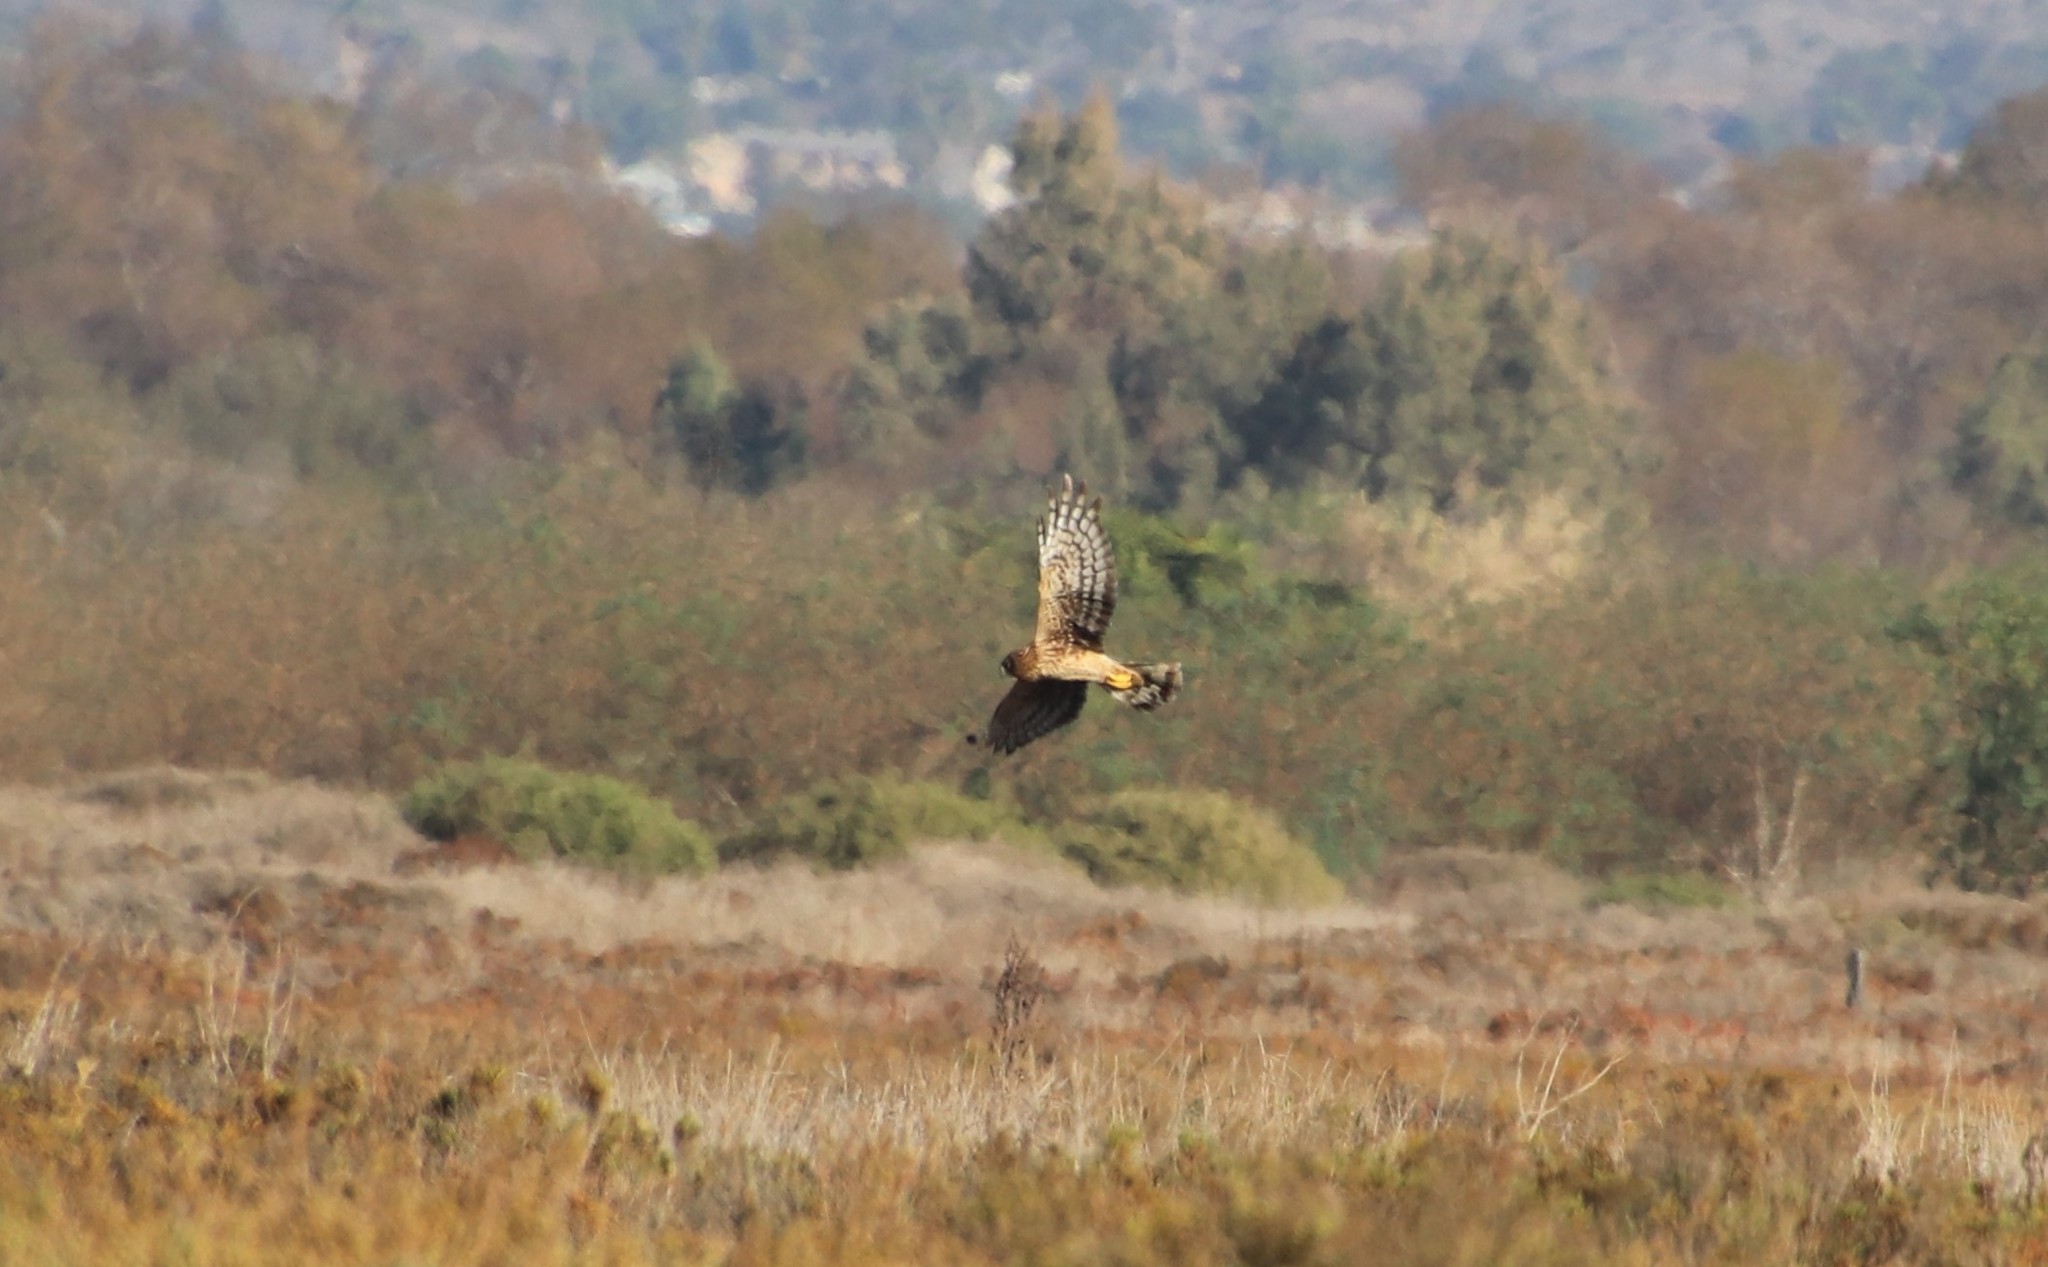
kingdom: Animalia
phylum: Chordata
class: Aves
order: Accipitriformes
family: Accipitridae
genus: Circus
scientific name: Circus cyaneus
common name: Hen harrier
